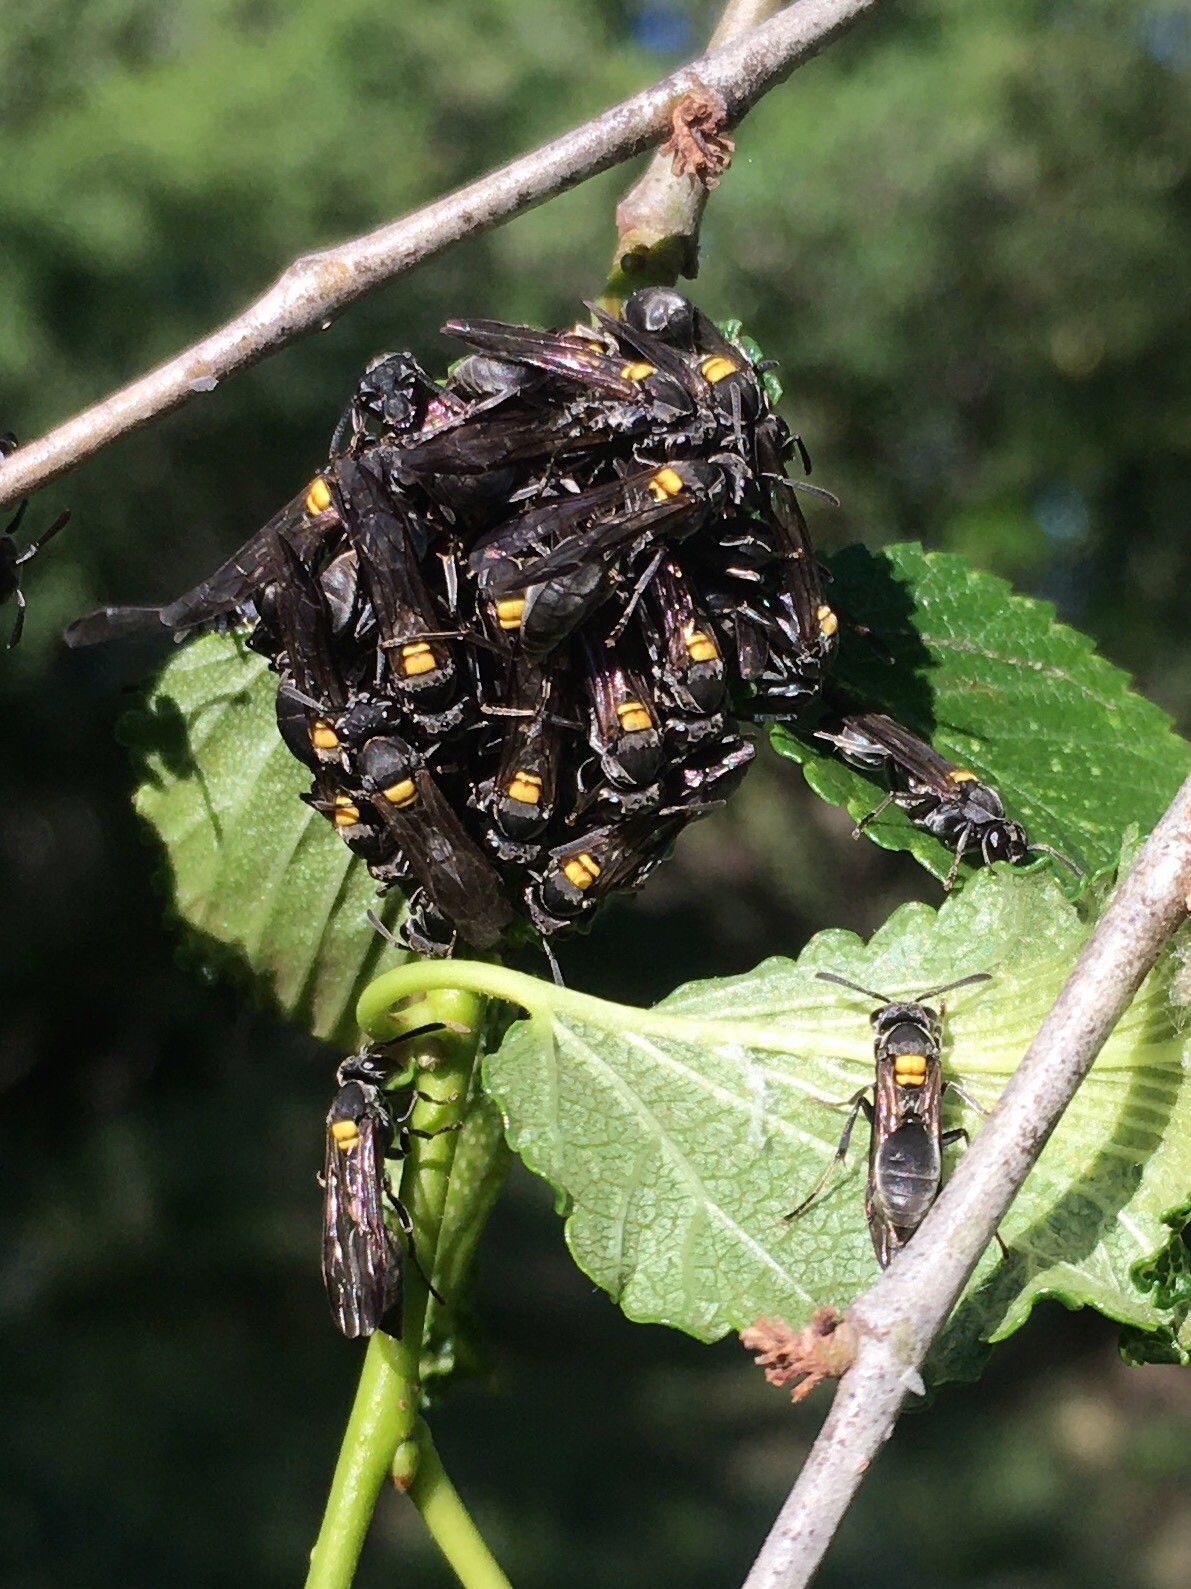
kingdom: Animalia
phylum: Arthropoda
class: Insecta
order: Hymenoptera
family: Eumenidae
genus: Polybia
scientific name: Polybia scutellaris
